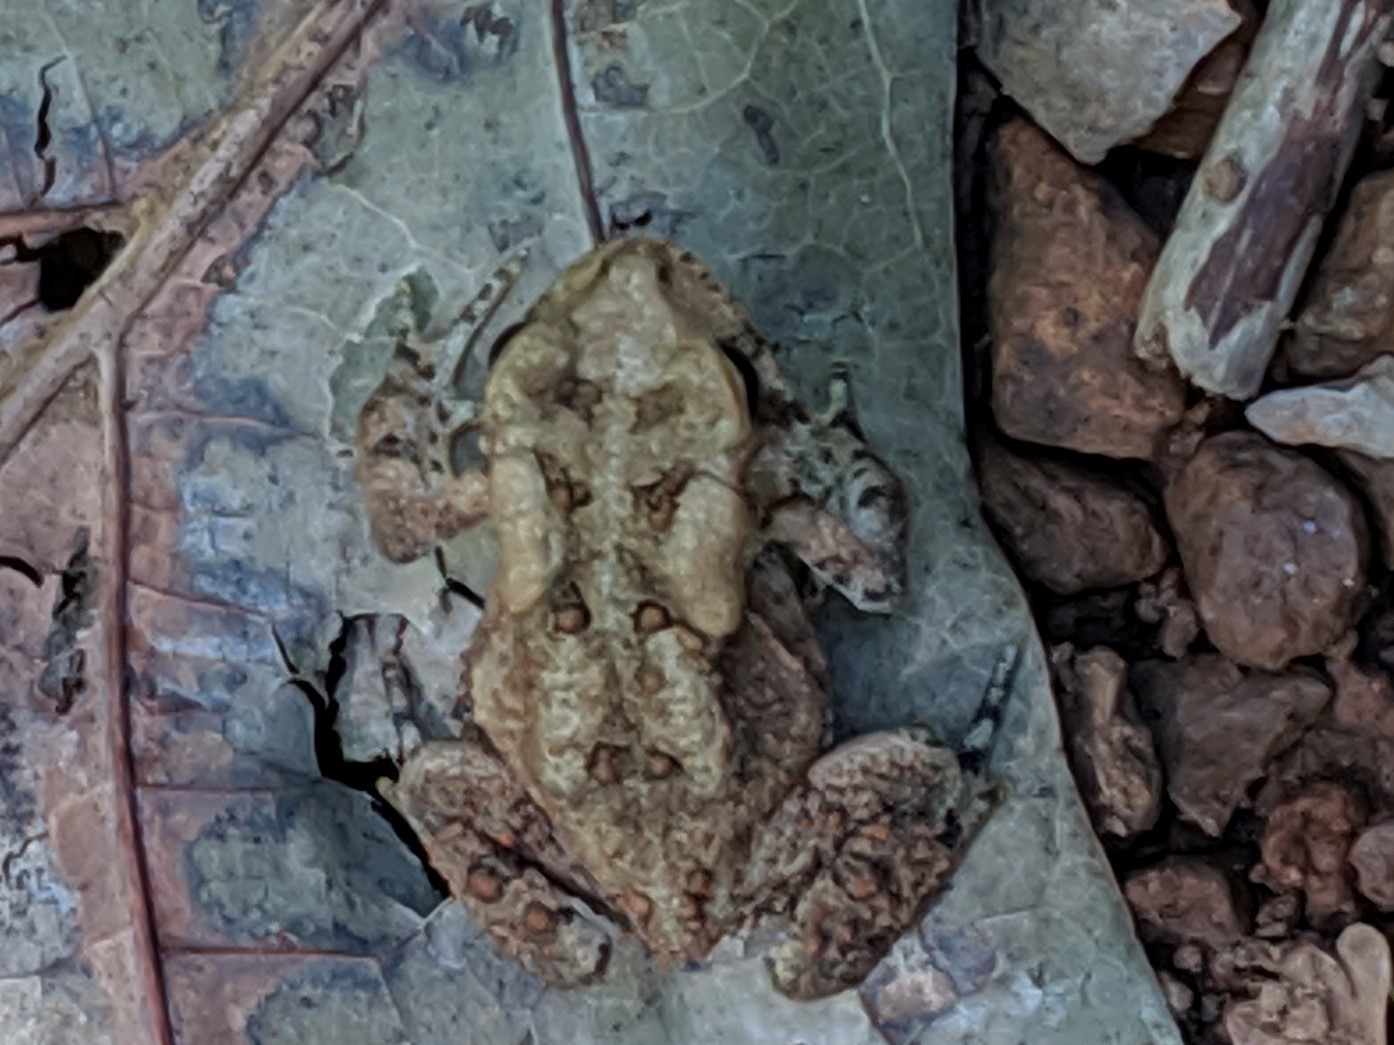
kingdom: Animalia
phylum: Chordata
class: Amphibia
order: Anura
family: Bufonidae
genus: Anaxyrus
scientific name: Anaxyrus americanus
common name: American toad
